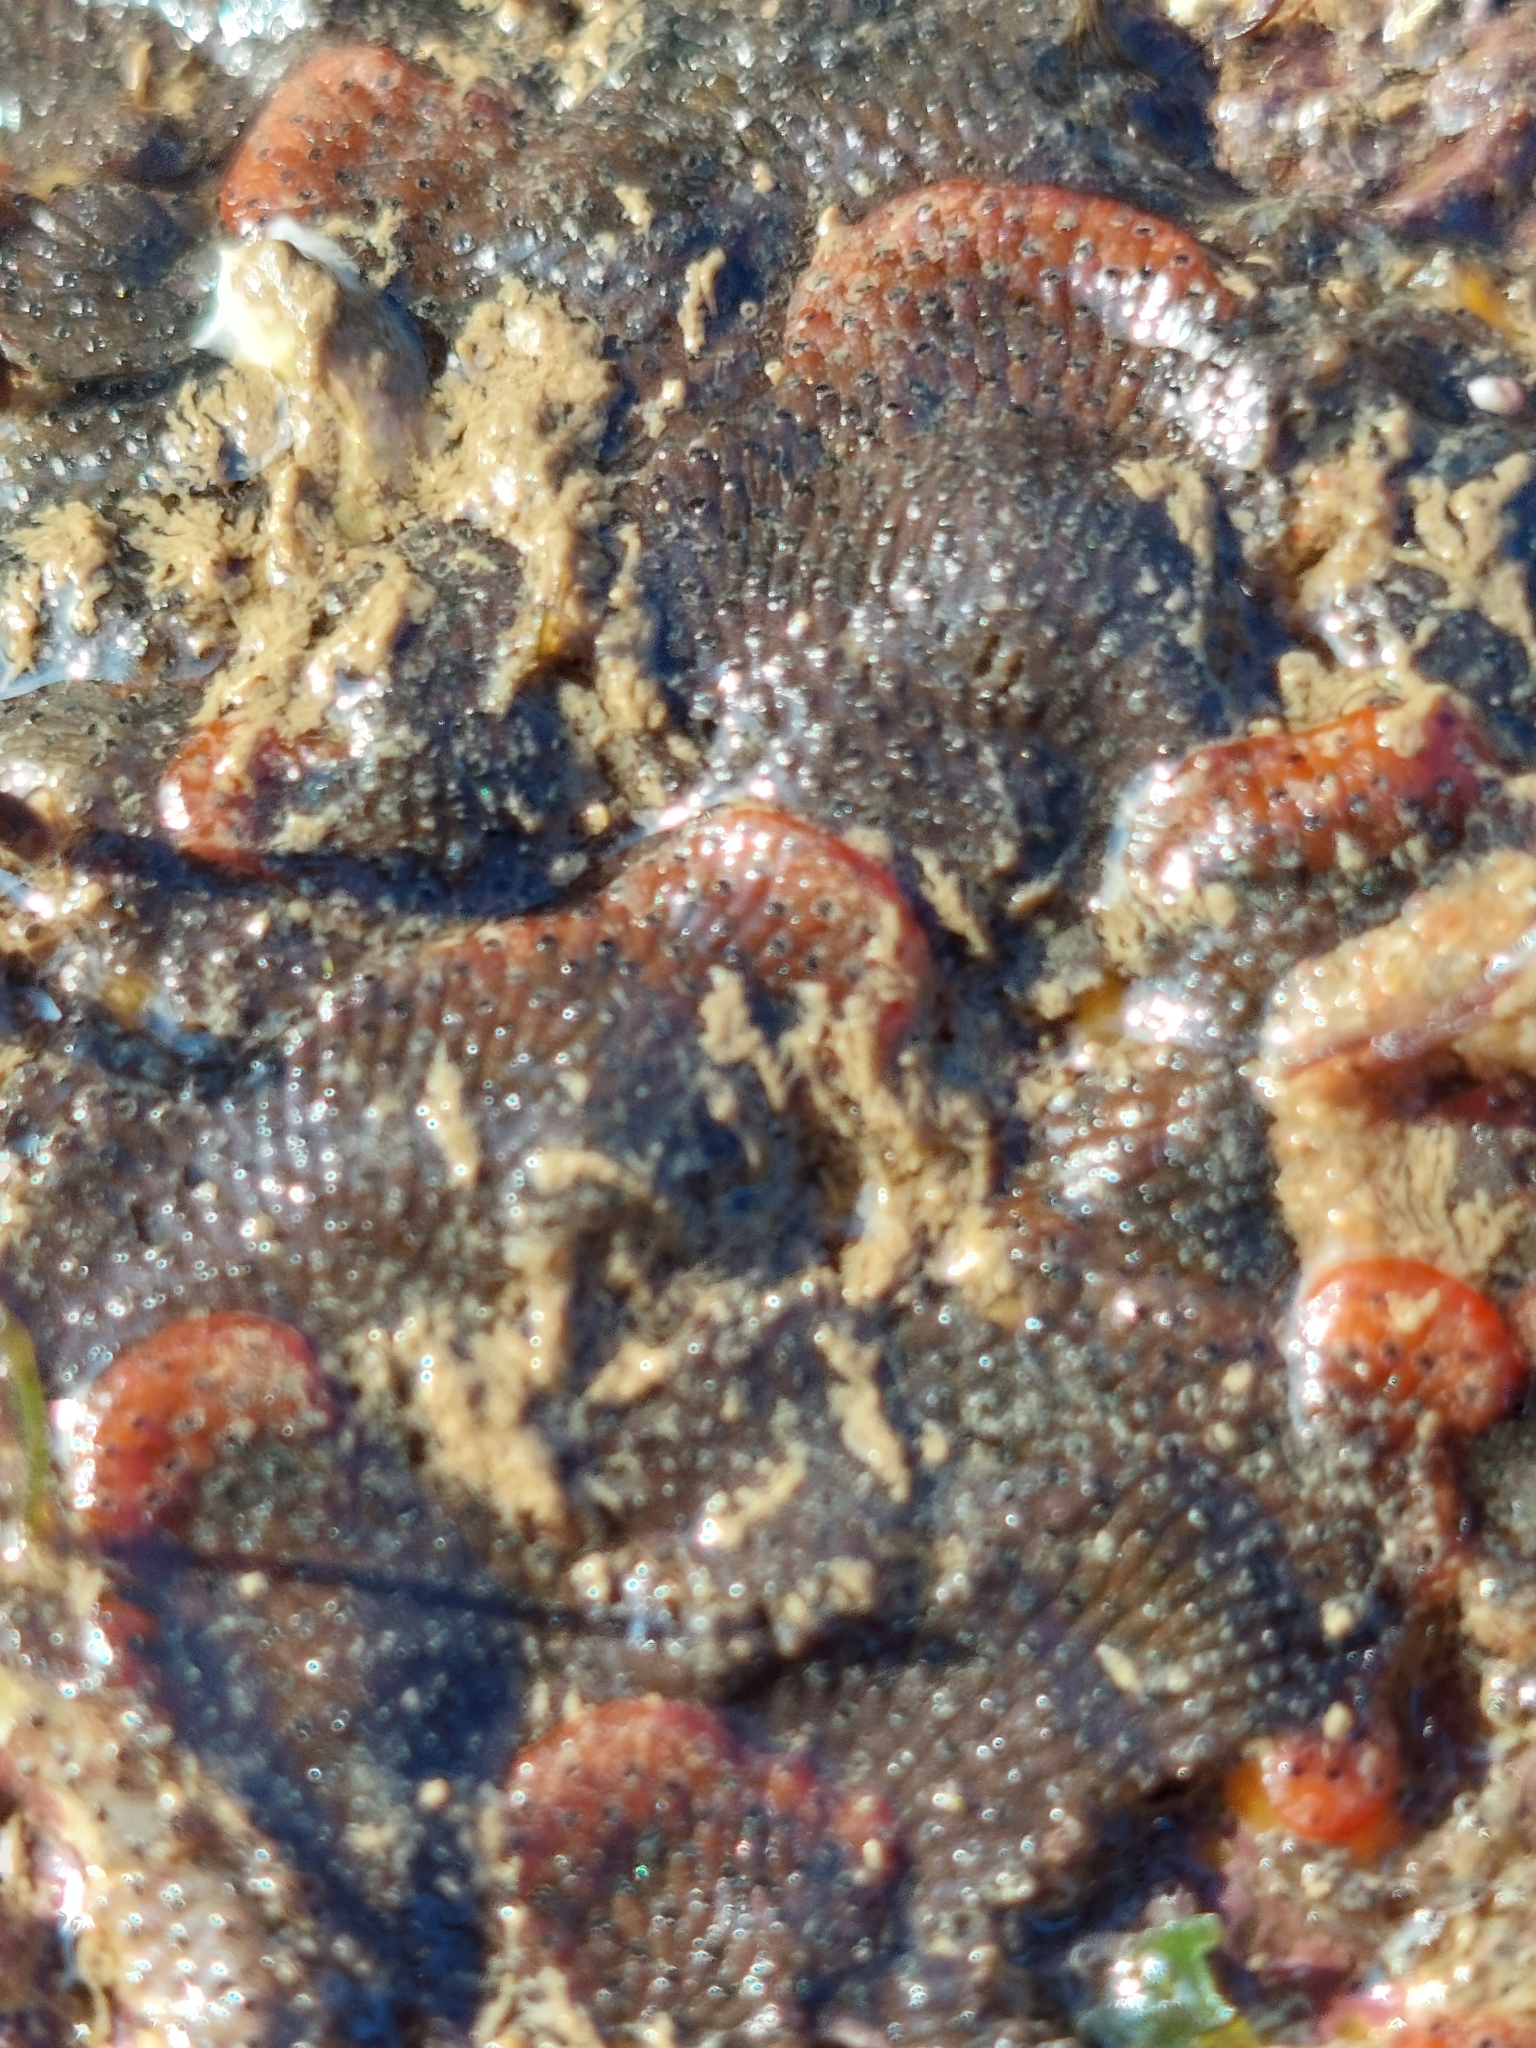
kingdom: Animalia
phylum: Bryozoa
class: Gymnolaemata
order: Cheilostomatida
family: Watersiporidae
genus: Watersipora
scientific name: Watersipora subatra
